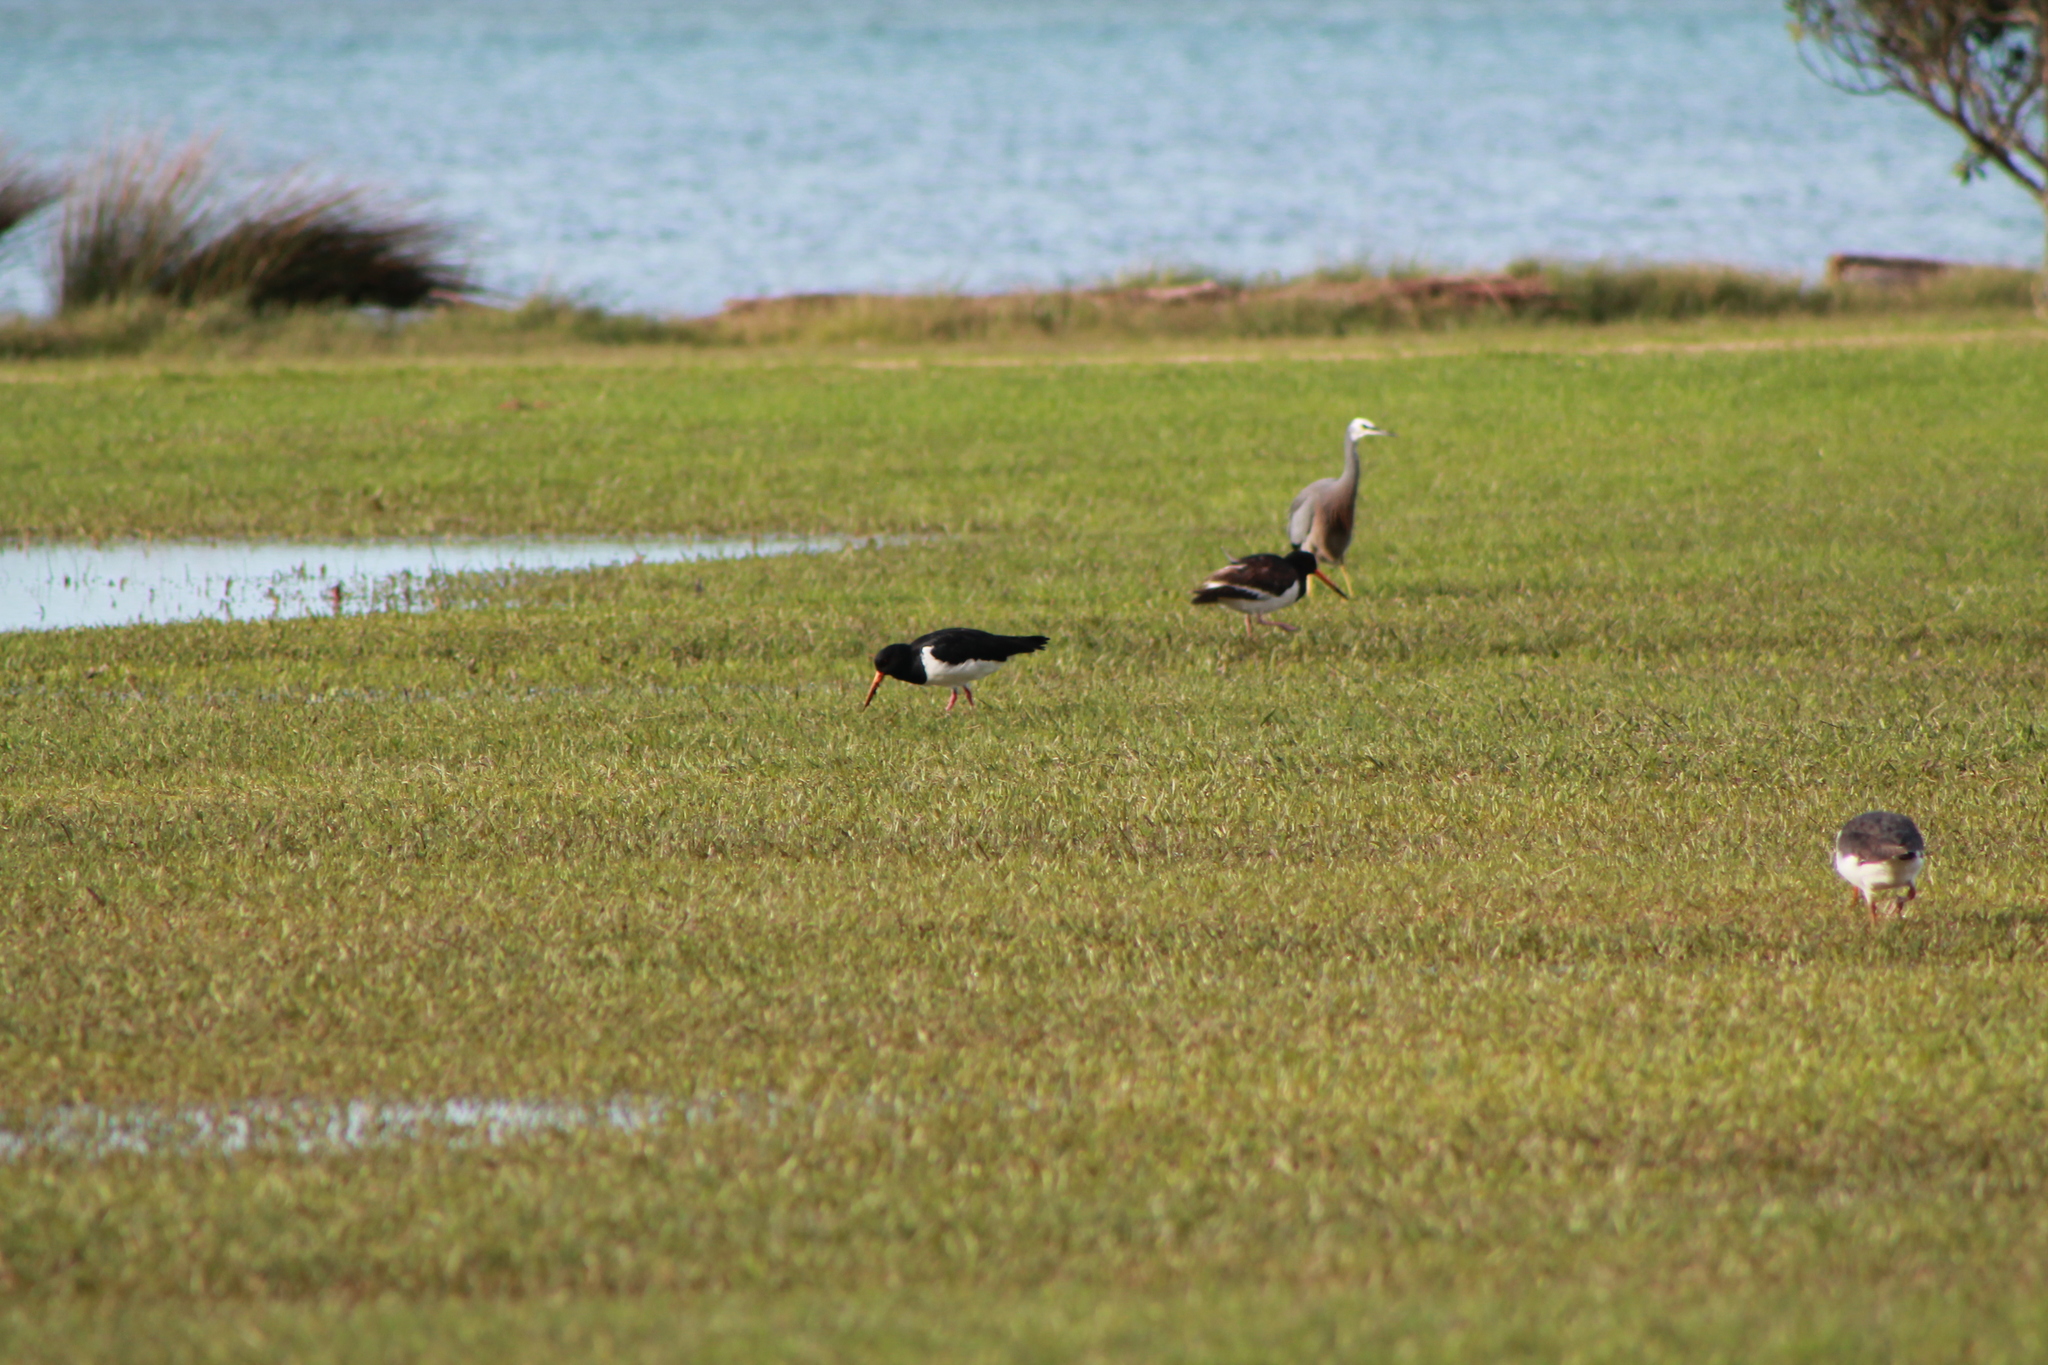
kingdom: Animalia
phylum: Chordata
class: Aves
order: Charadriiformes
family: Haematopodidae
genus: Haematopus
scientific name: Haematopus finschi
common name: South island oystercatcher
